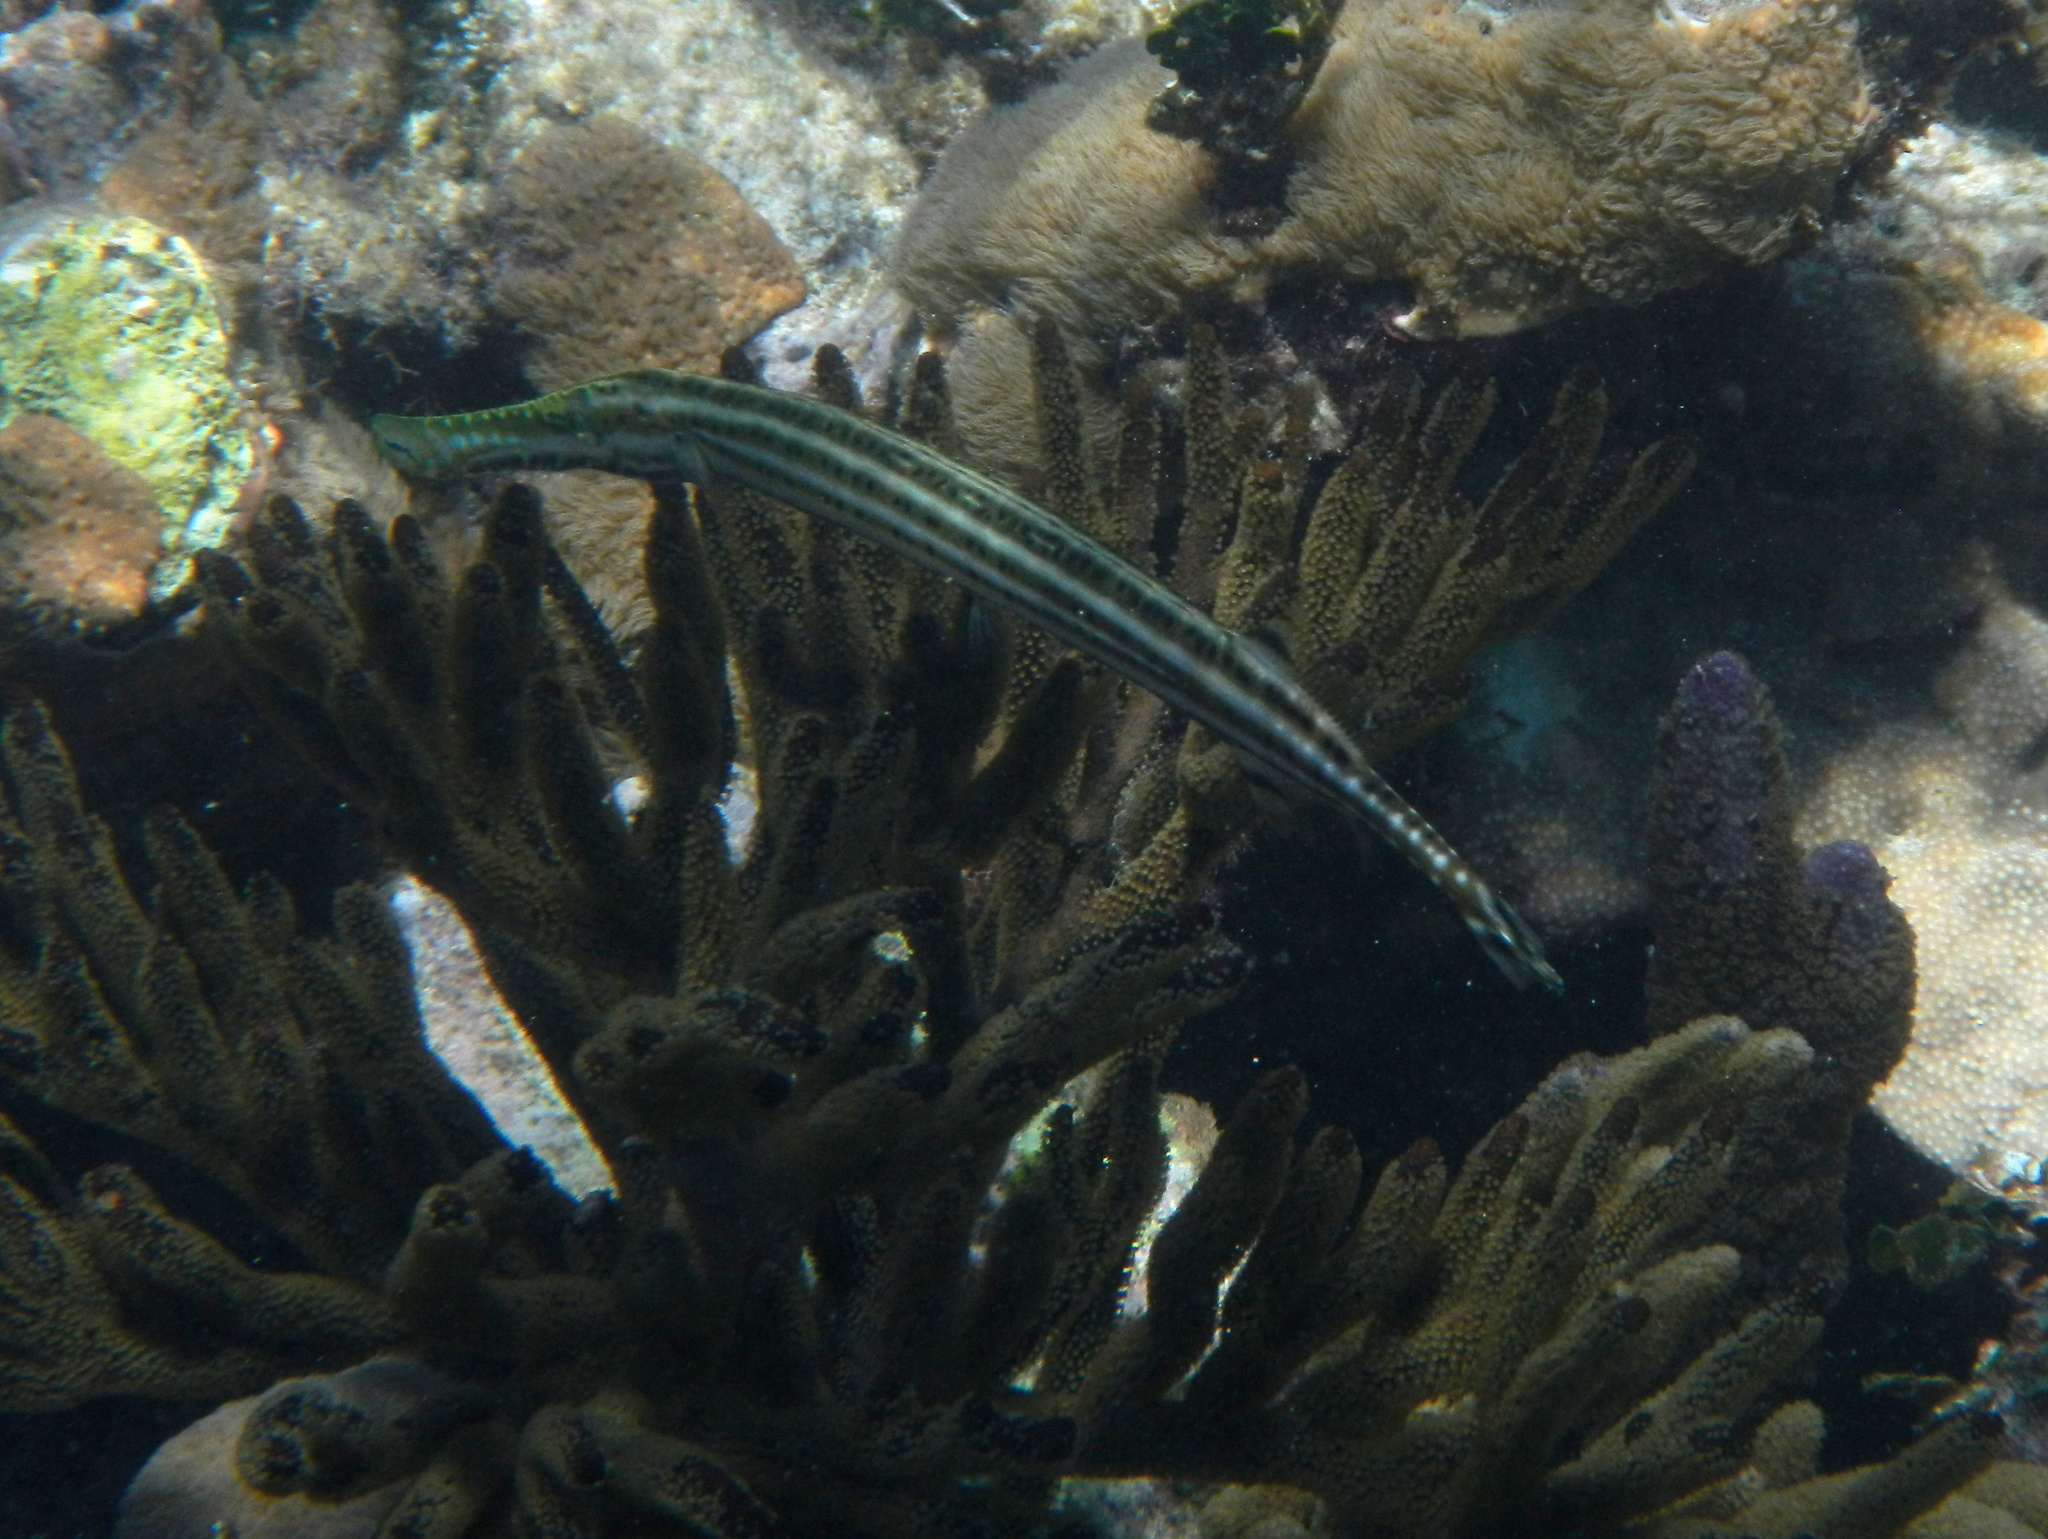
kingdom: Animalia
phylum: Chordata
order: Syngnathiformes
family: Aulostomidae
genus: Aulostomus
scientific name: Aulostomus maculatus
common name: West atlantic trumpetfish
